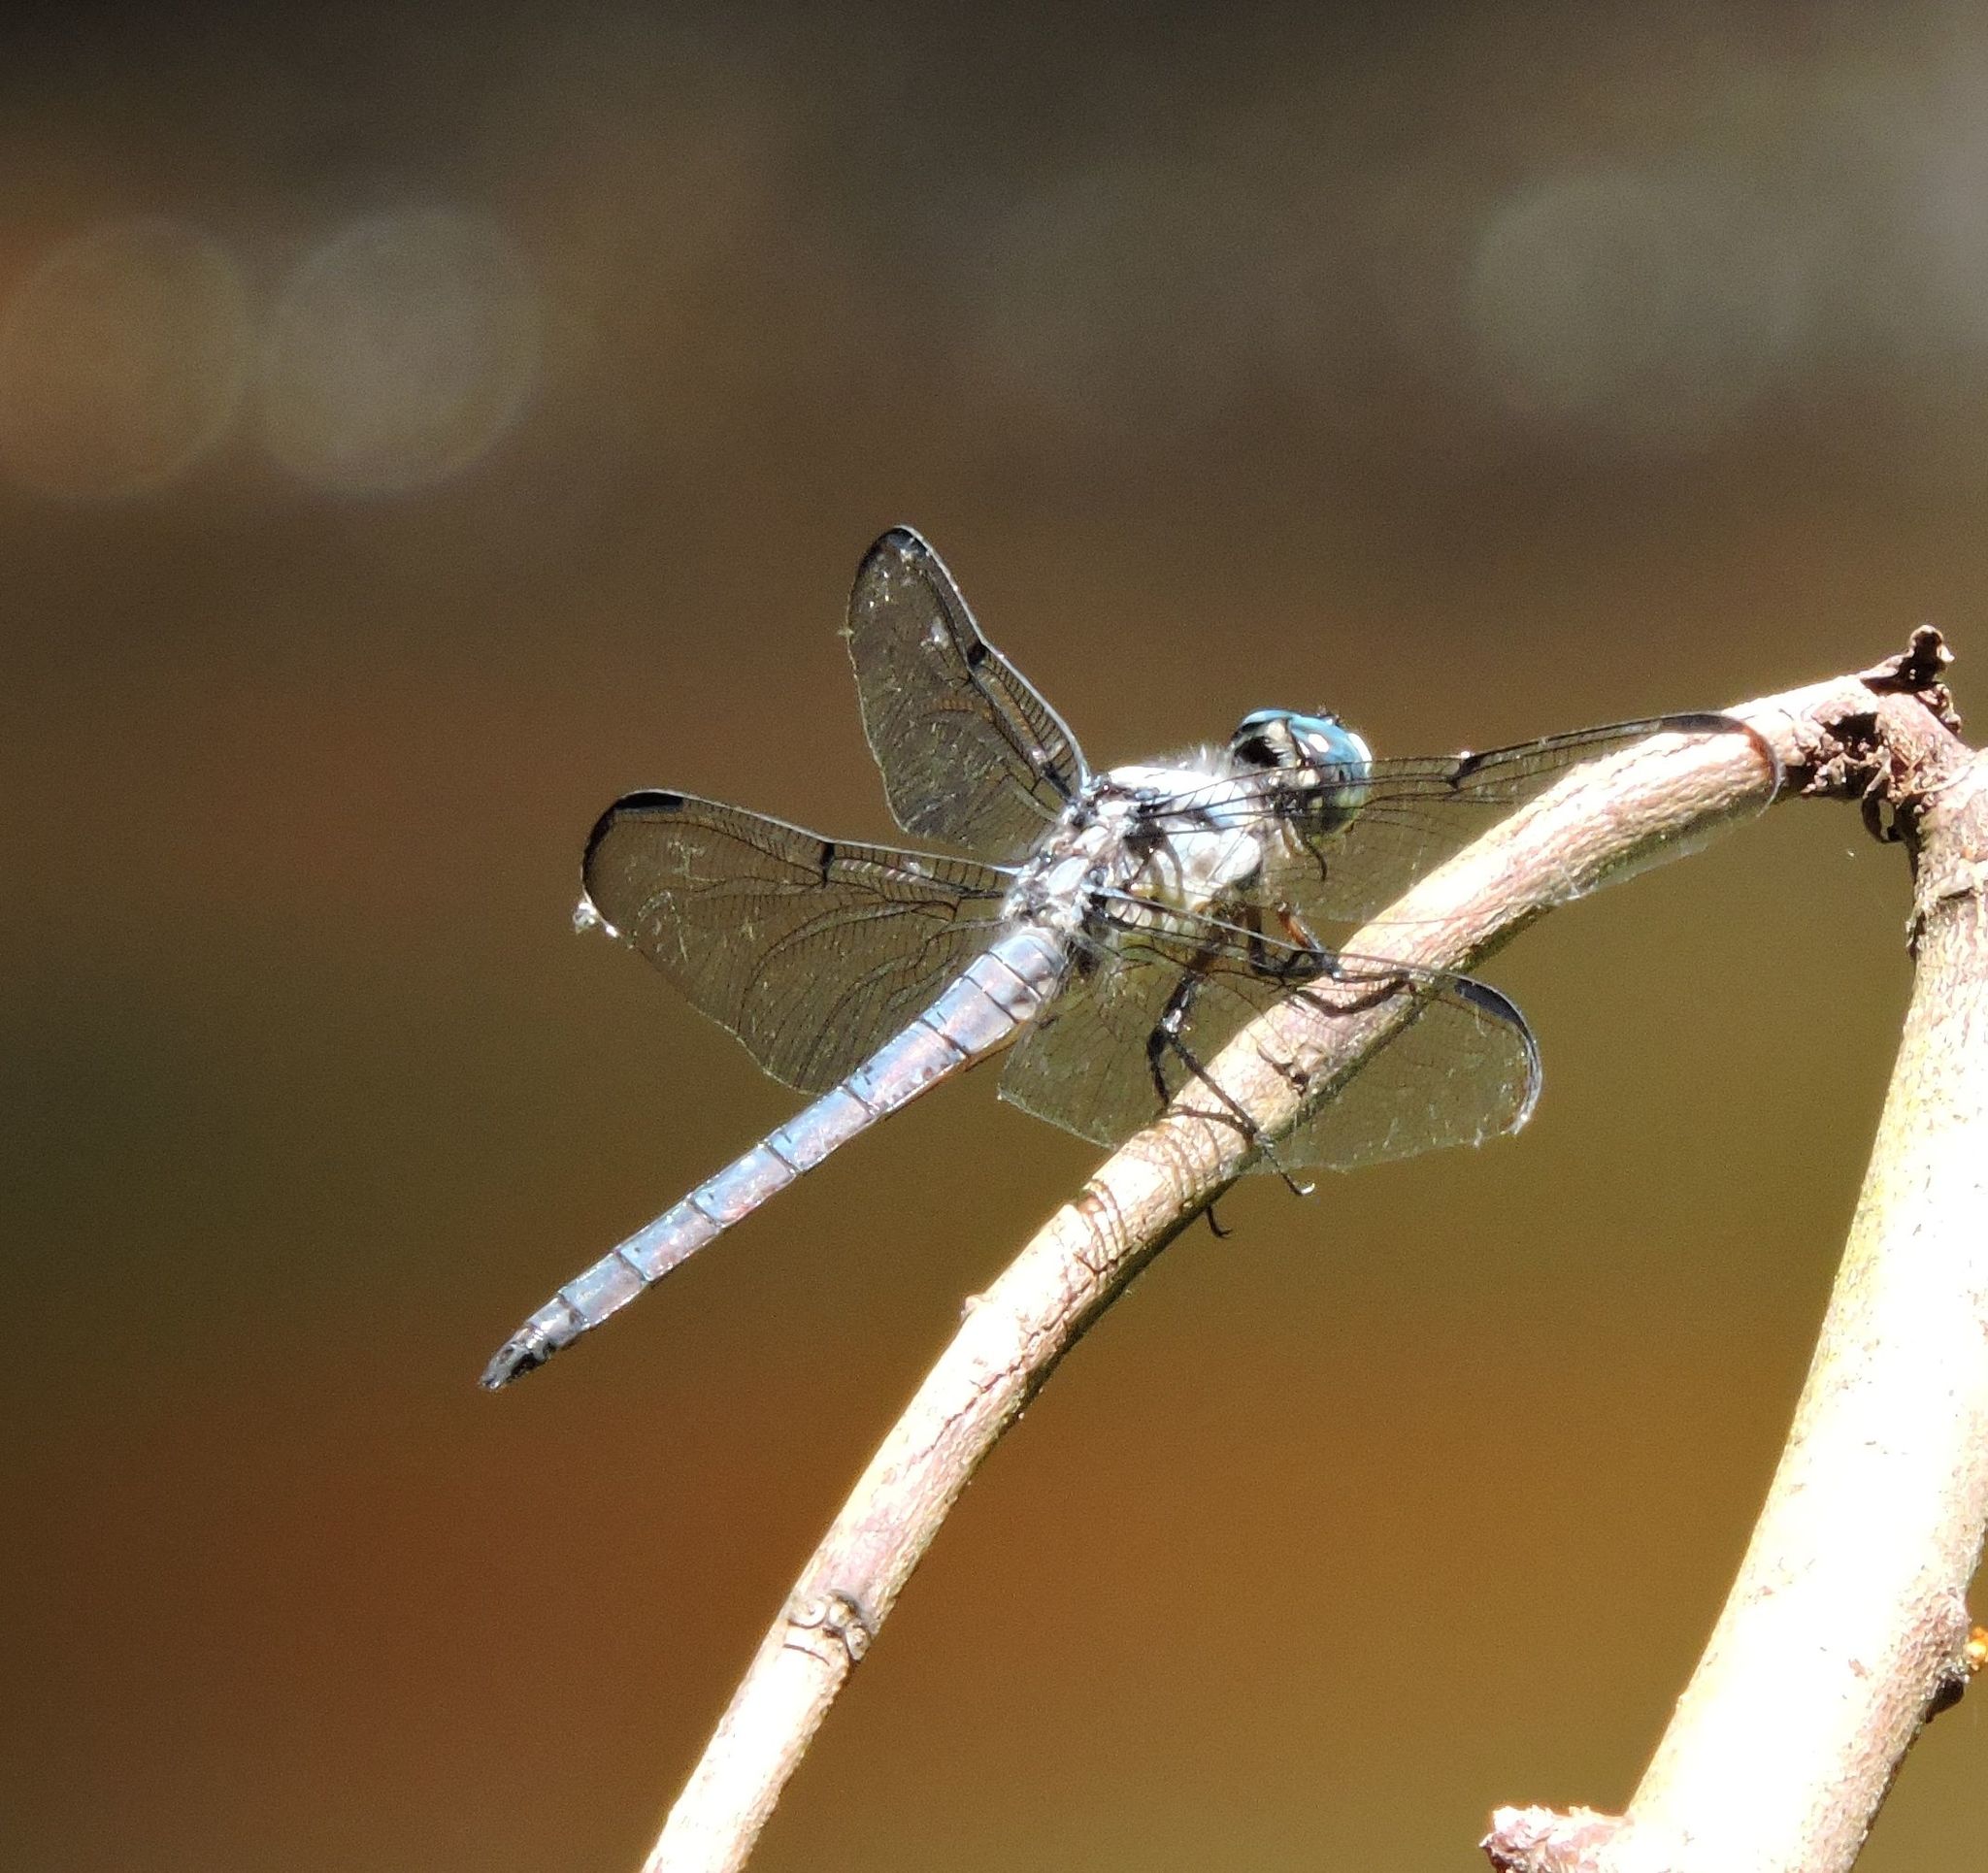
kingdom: Animalia
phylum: Arthropoda
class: Insecta
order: Odonata
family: Libellulidae
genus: Libellula
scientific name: Libellula vibrans
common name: Great blue skimmer
